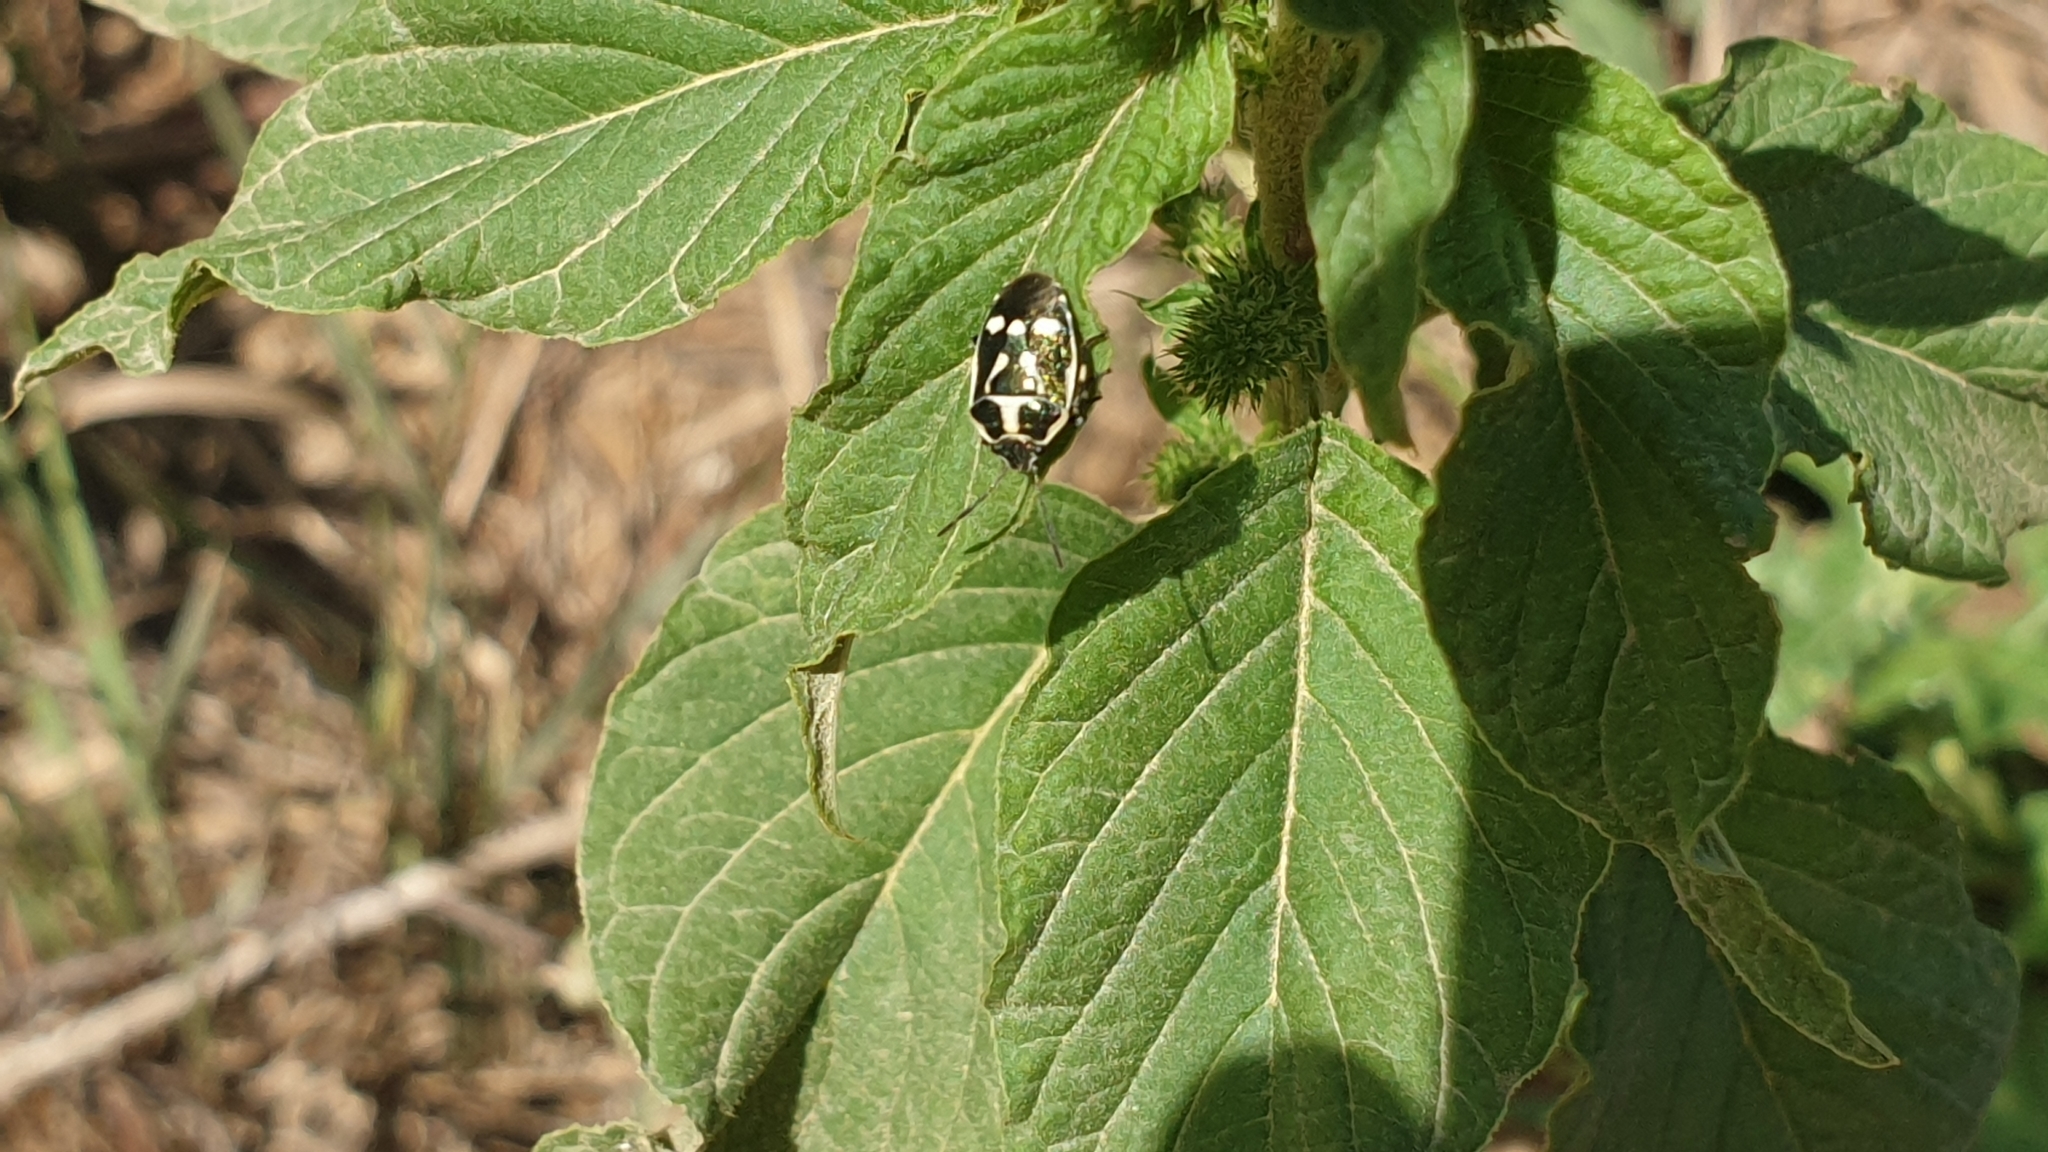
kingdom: Animalia
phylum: Arthropoda
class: Insecta
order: Hemiptera
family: Pentatomidae
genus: Eurydema
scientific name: Eurydema oleracea
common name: Cabbage bug
